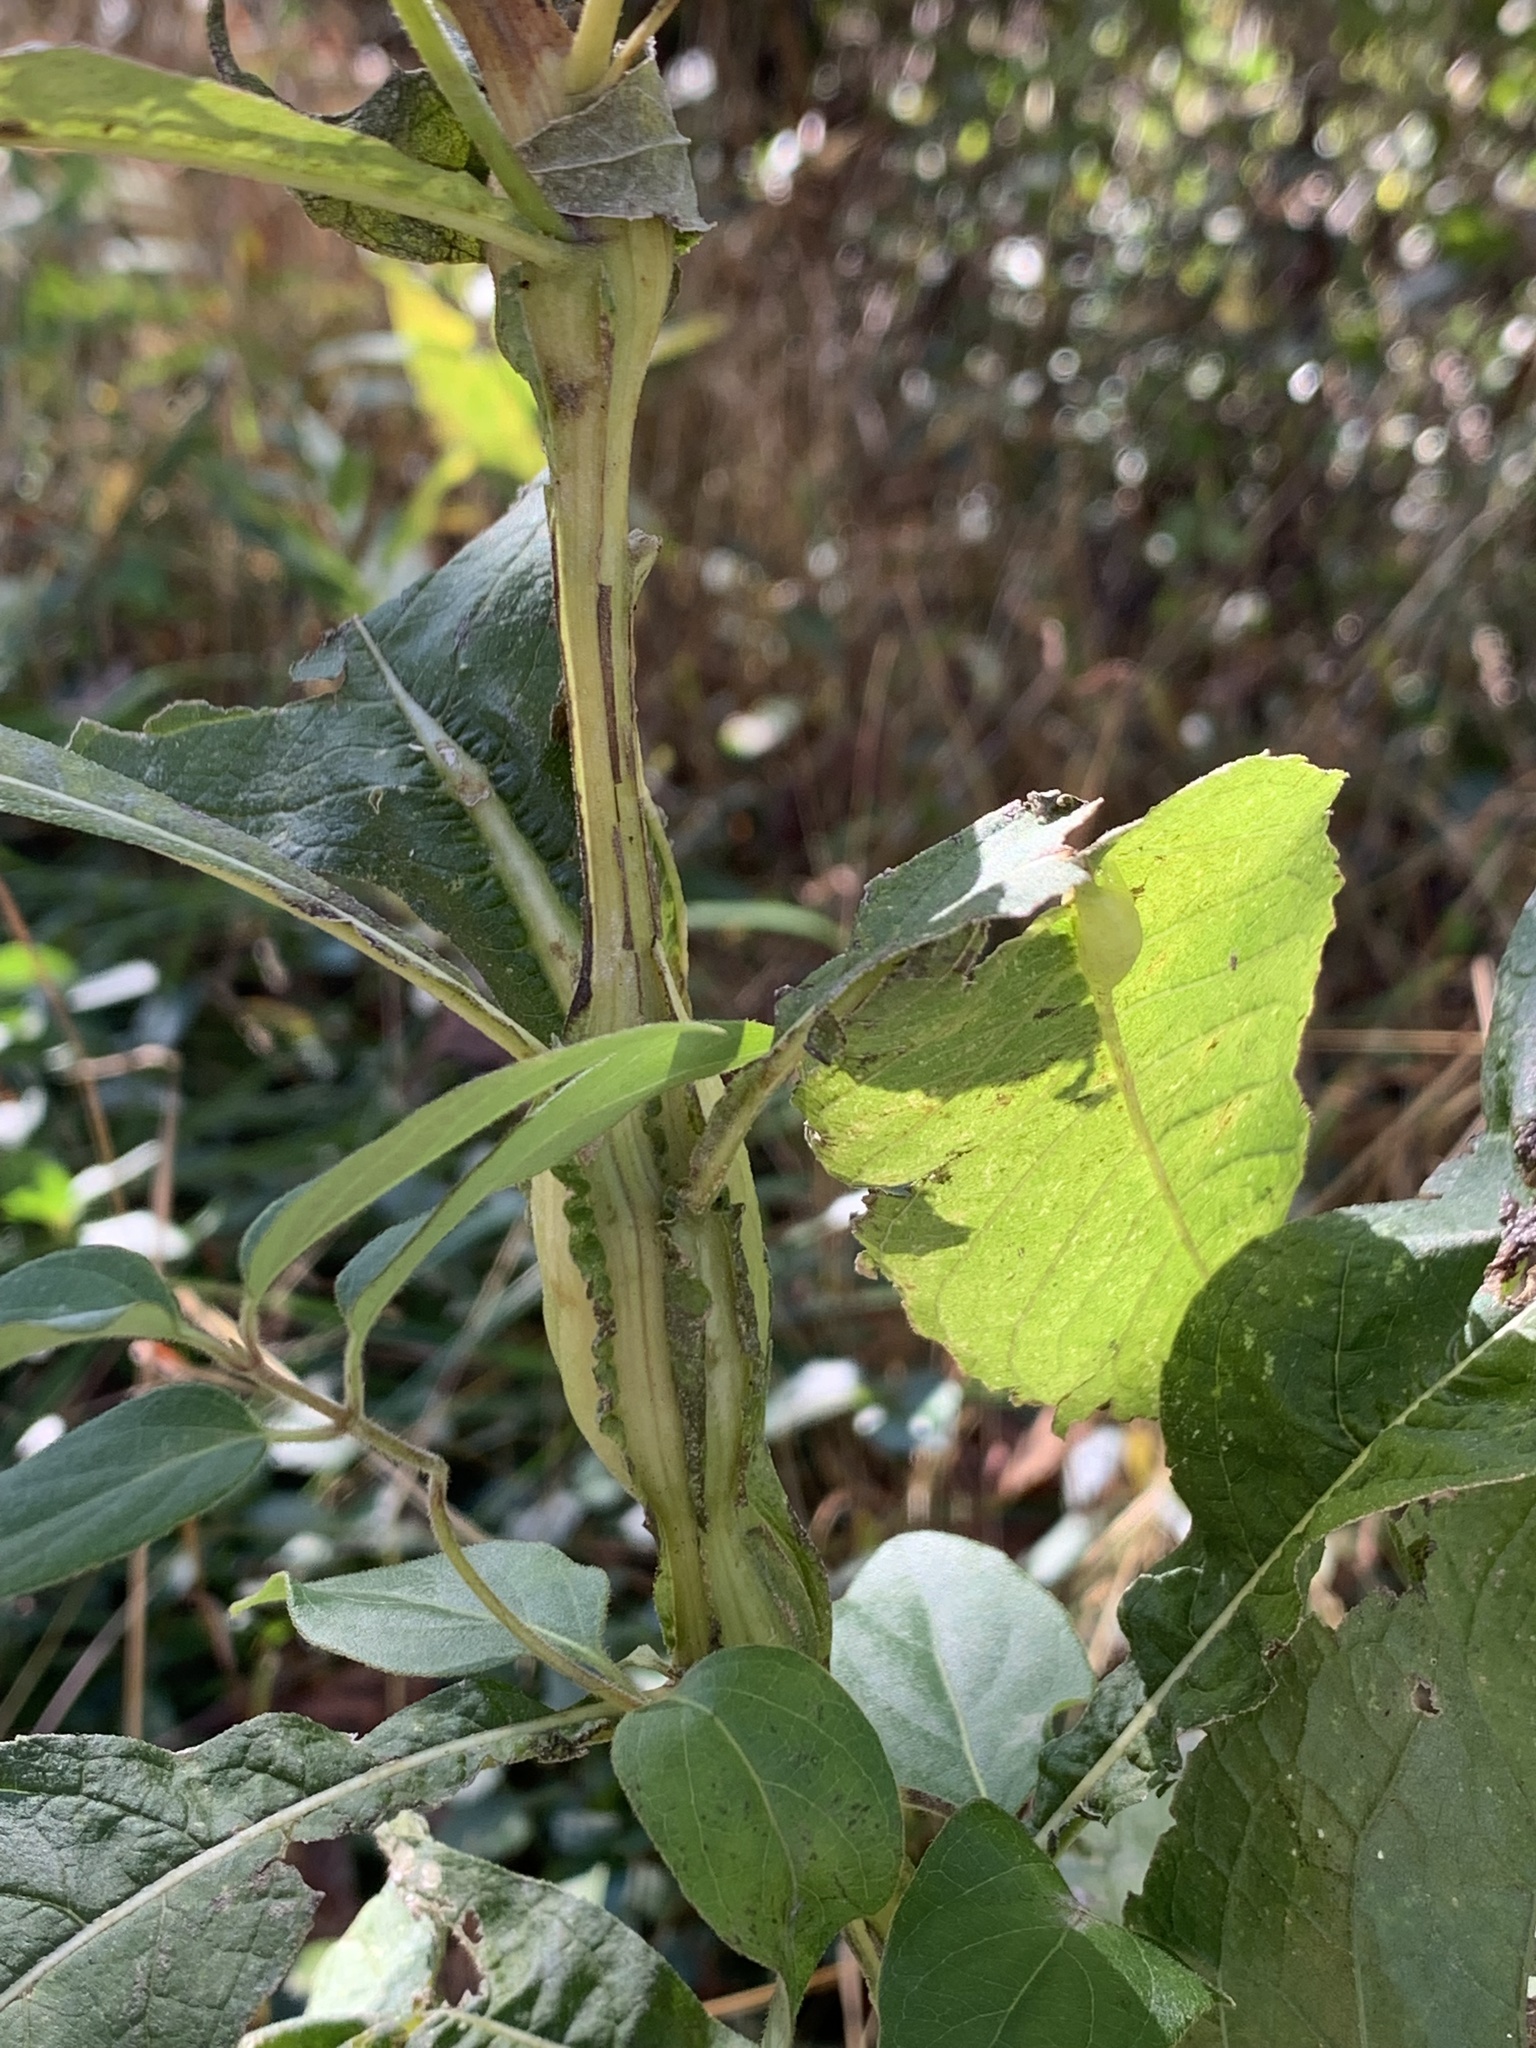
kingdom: Animalia
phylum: Arthropoda
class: Insecta
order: Diptera
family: Cecidomyiidae
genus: Neolasioptera
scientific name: Neolasioptera verbesinae
